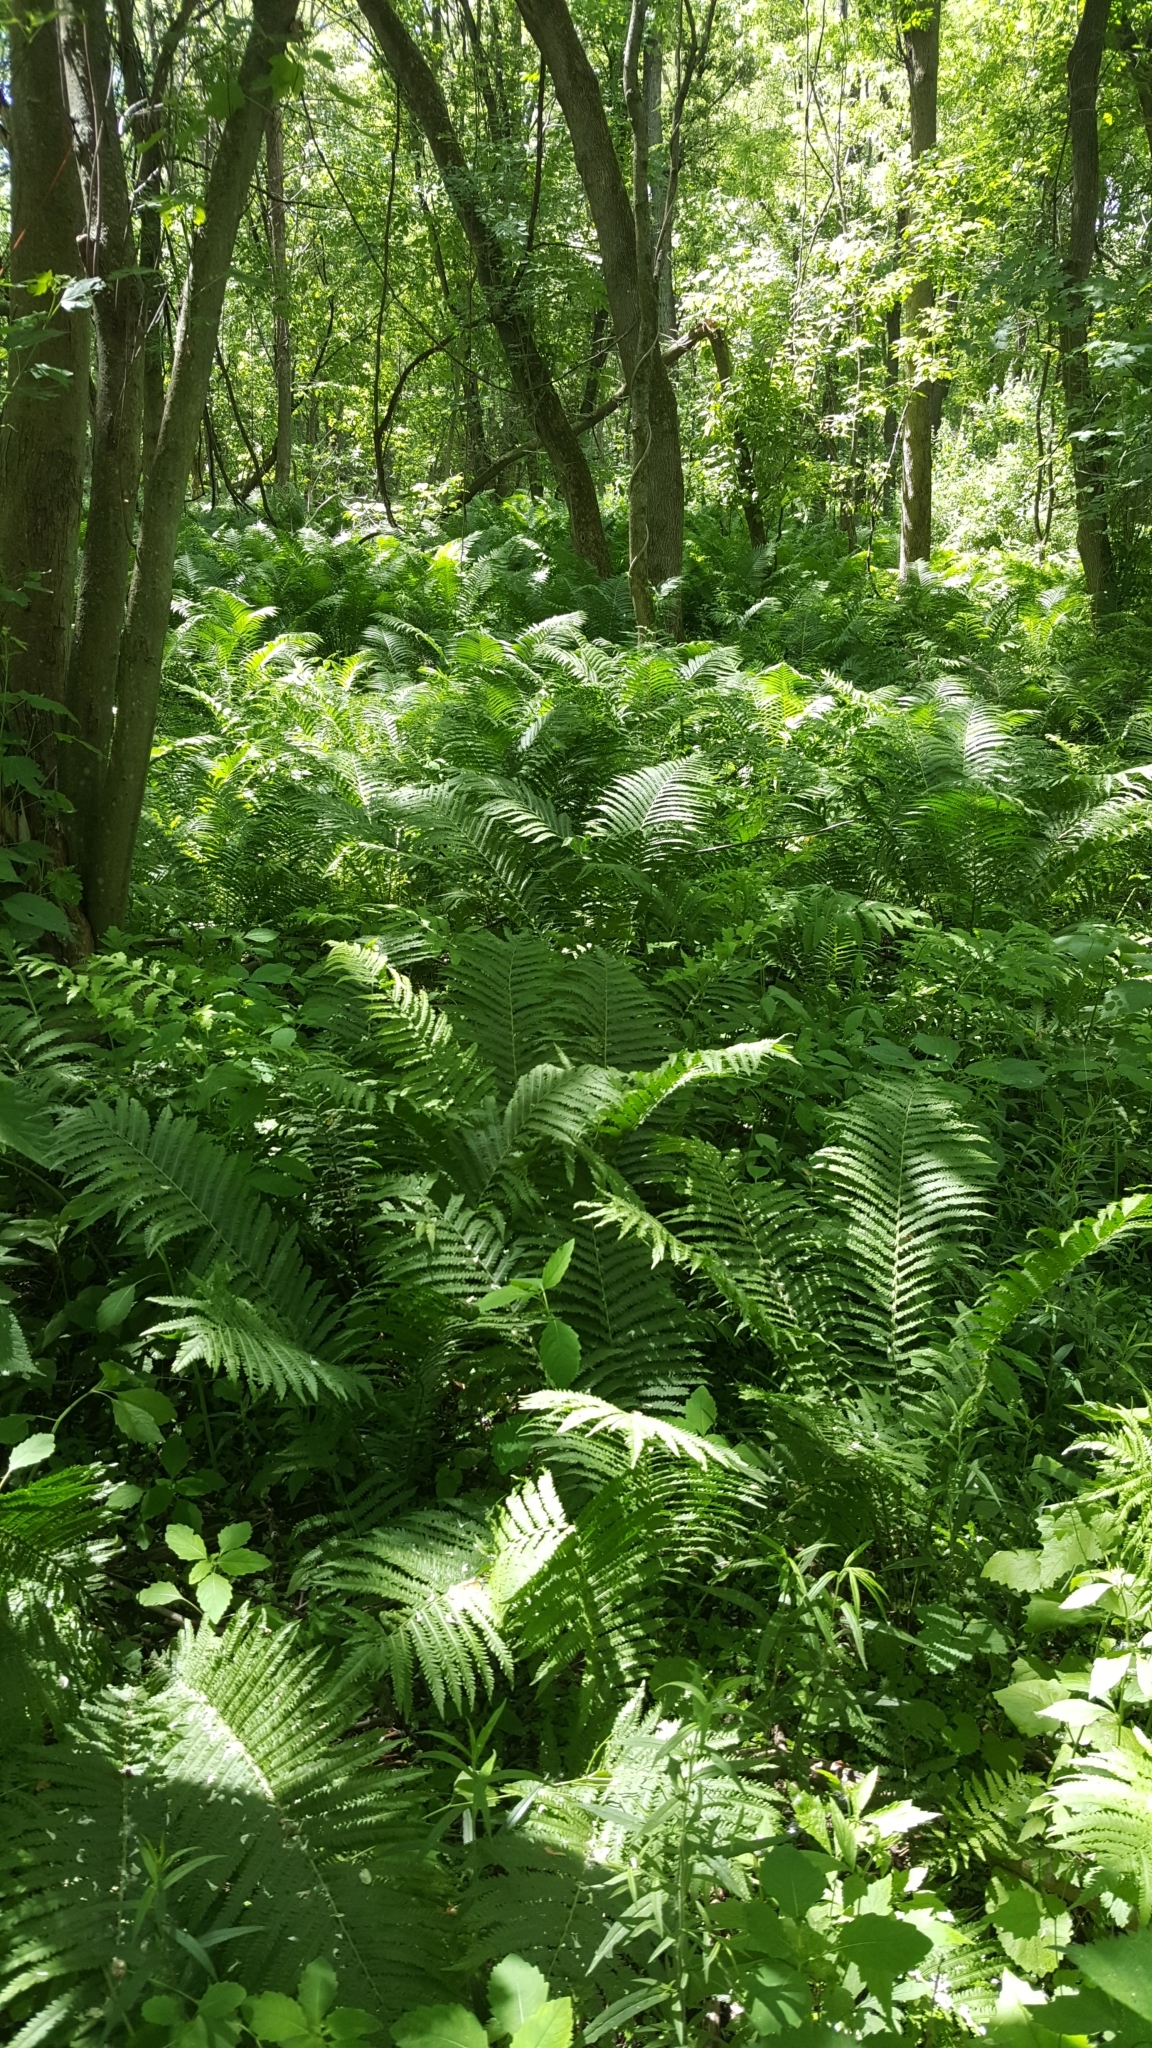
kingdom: Plantae
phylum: Tracheophyta
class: Polypodiopsida
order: Polypodiales
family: Onocleaceae
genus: Matteuccia
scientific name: Matteuccia struthiopteris
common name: Ostrich fern
